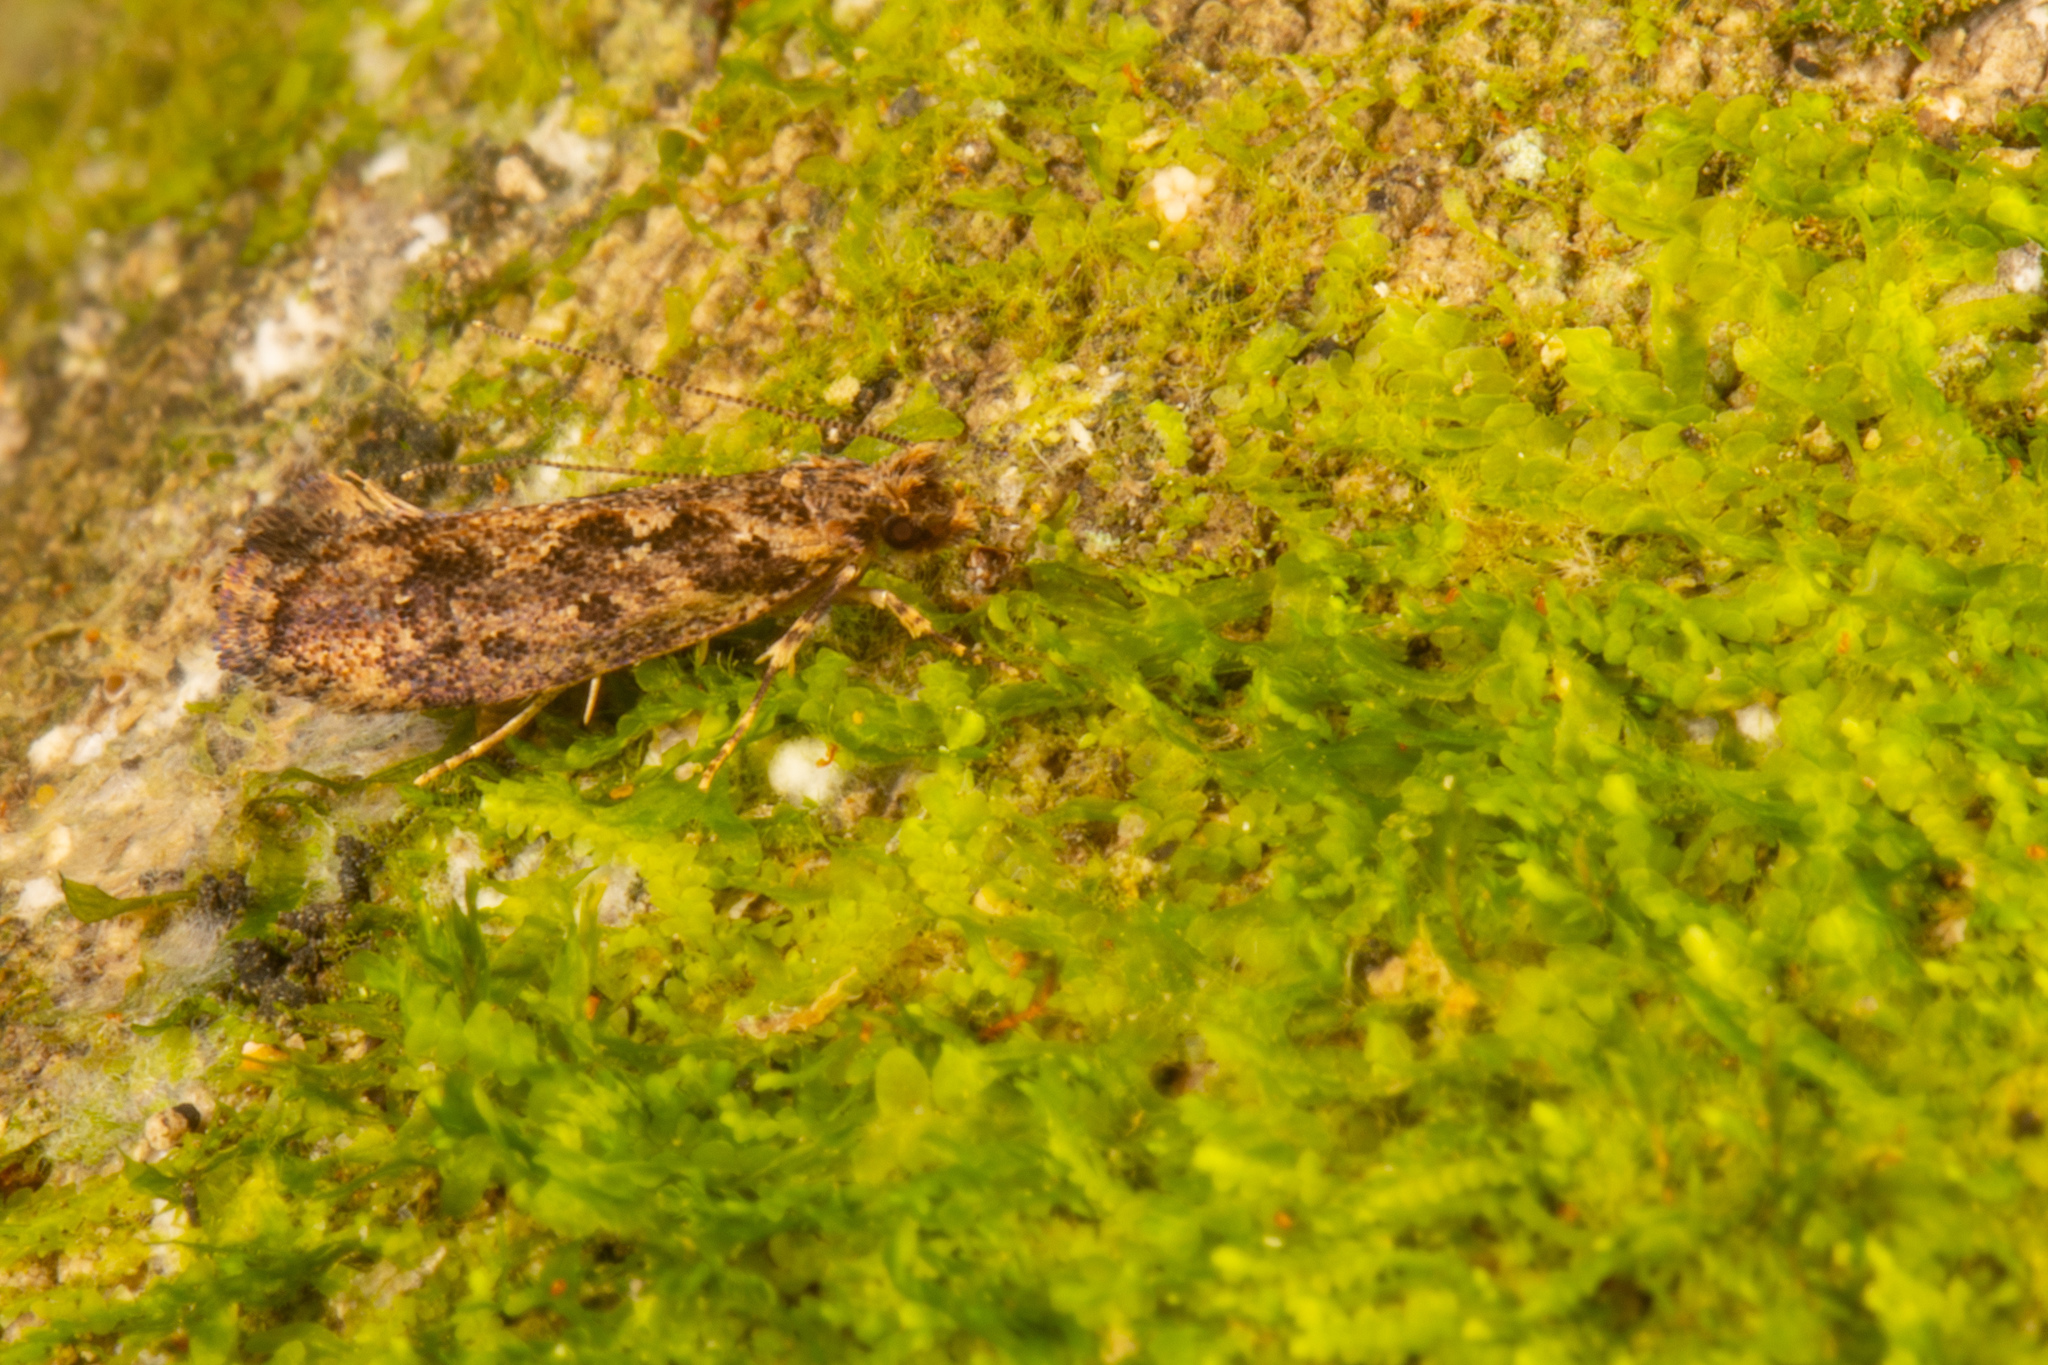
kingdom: Animalia
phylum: Arthropoda
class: Insecta
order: Lepidoptera
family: Tineidae
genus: Erechthias
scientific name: Erechthias capnitis
